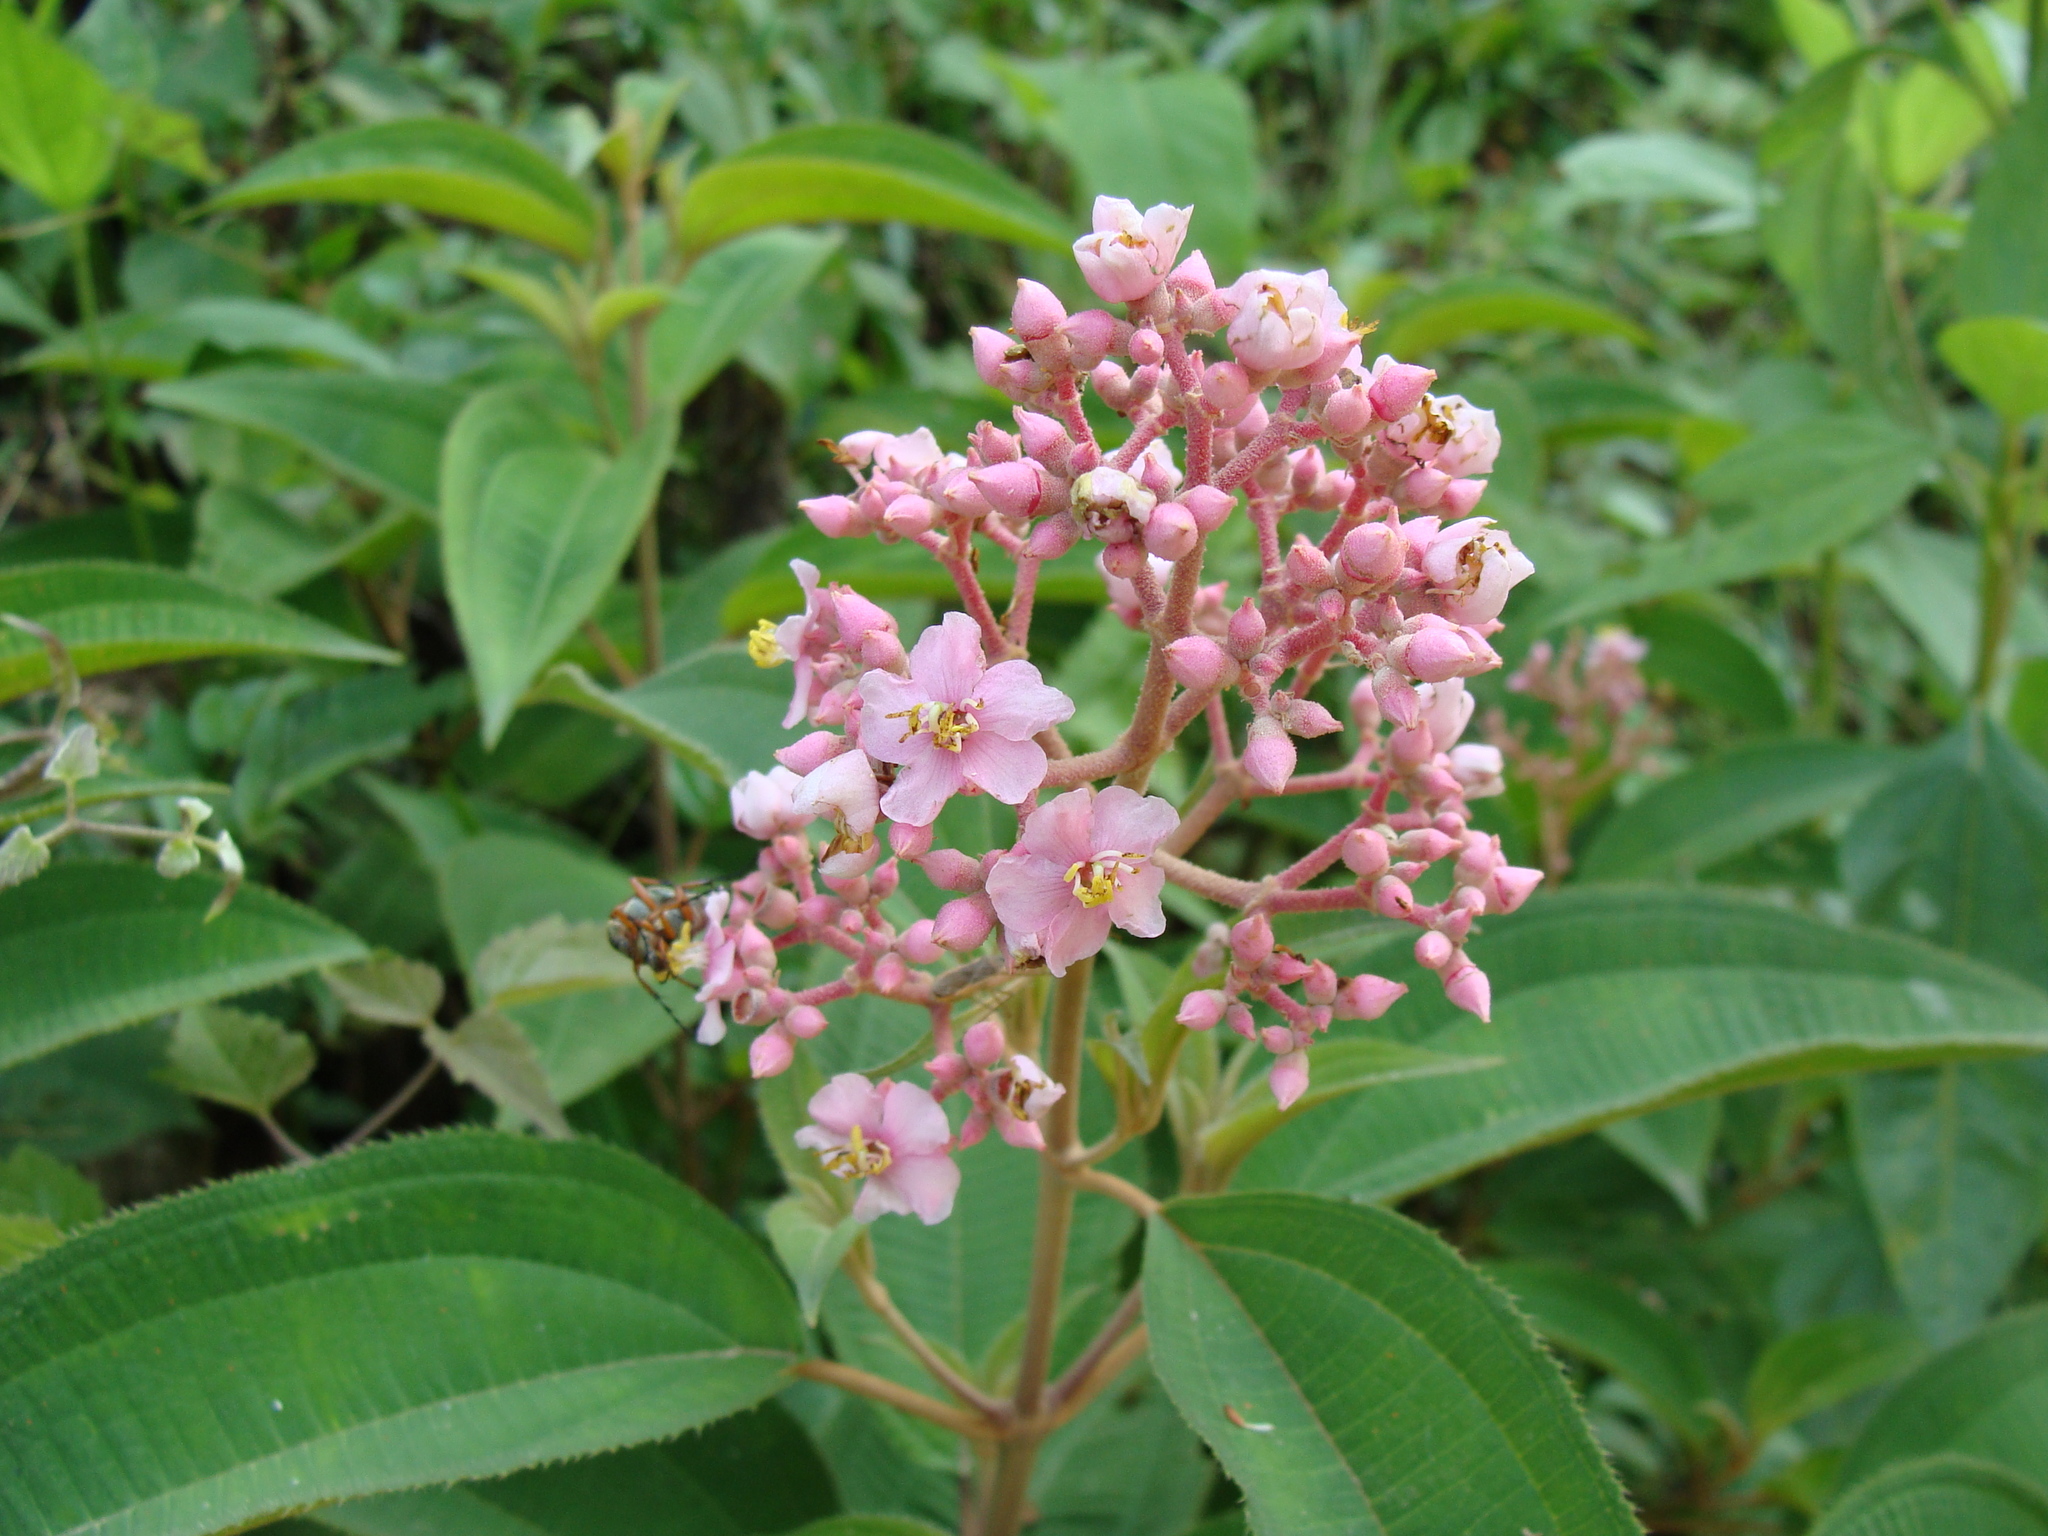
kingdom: Plantae
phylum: Tracheophyta
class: Magnoliopsida
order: Myrtales
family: Melastomataceae
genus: Miconia
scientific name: Miconia xalapensis
